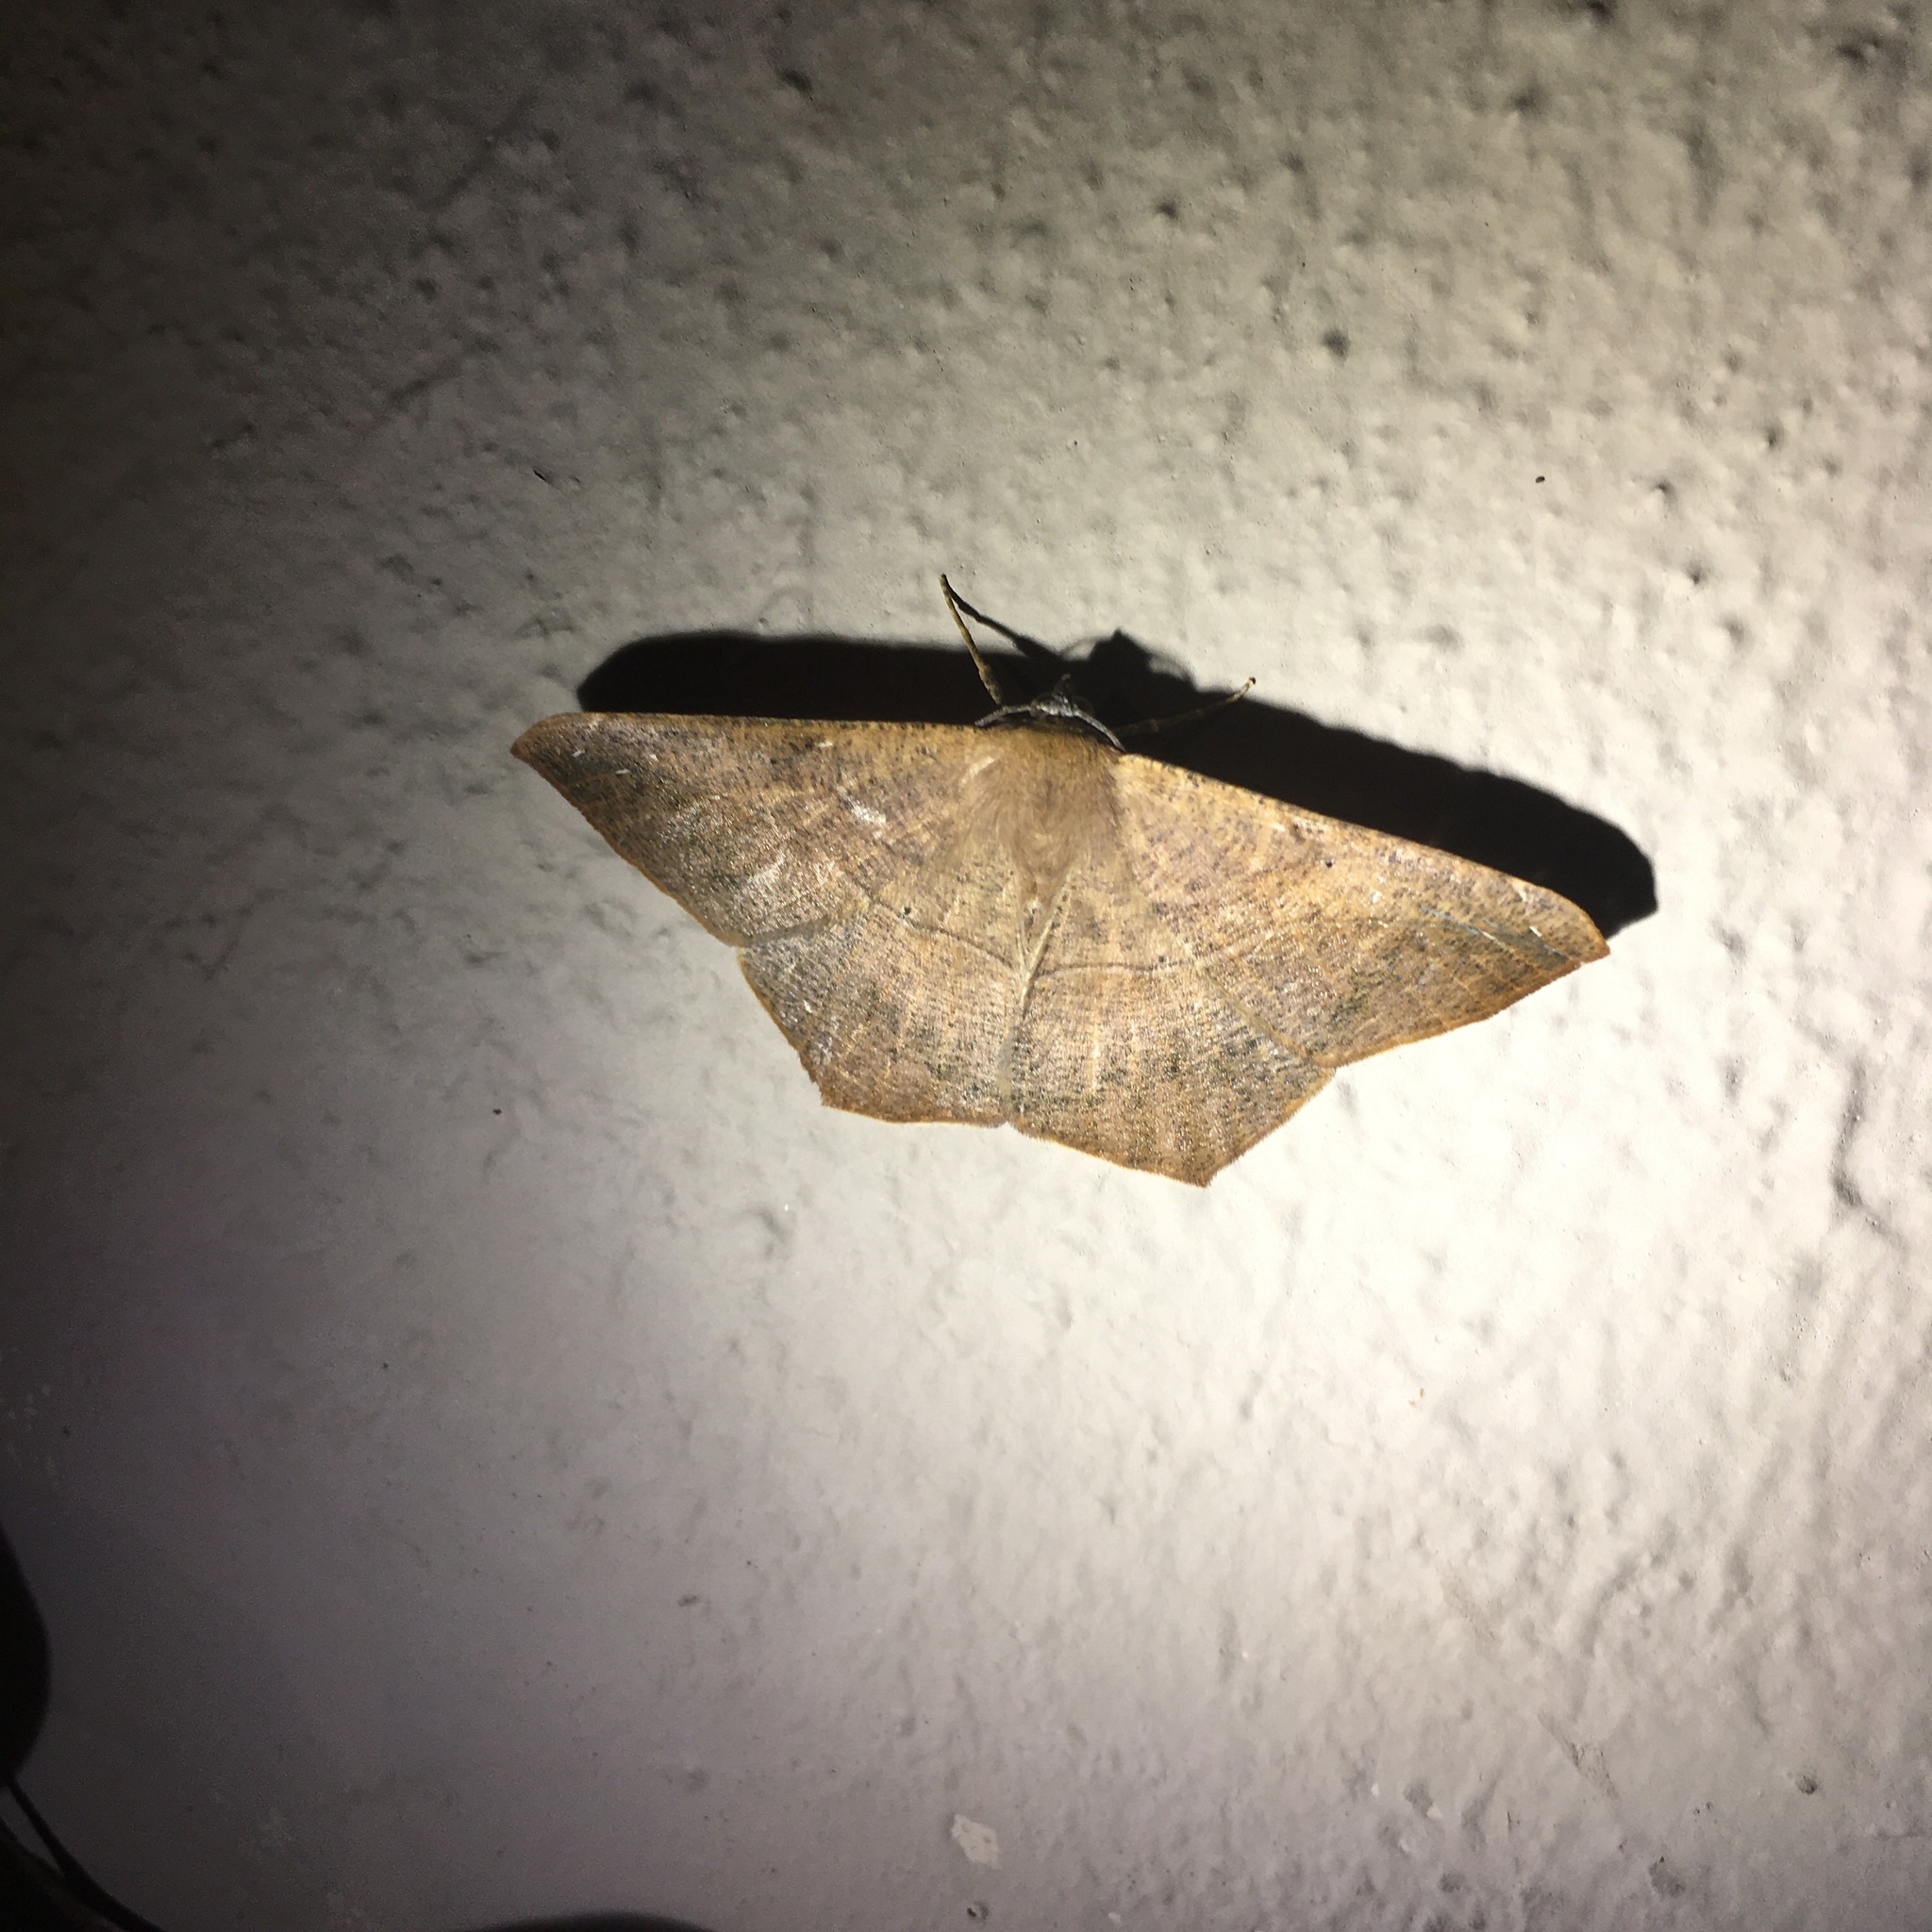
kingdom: Animalia
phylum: Arthropoda
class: Insecta
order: Lepidoptera
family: Geometridae
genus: Prochoerodes
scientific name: Prochoerodes lineola
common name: Large maple spanworm
